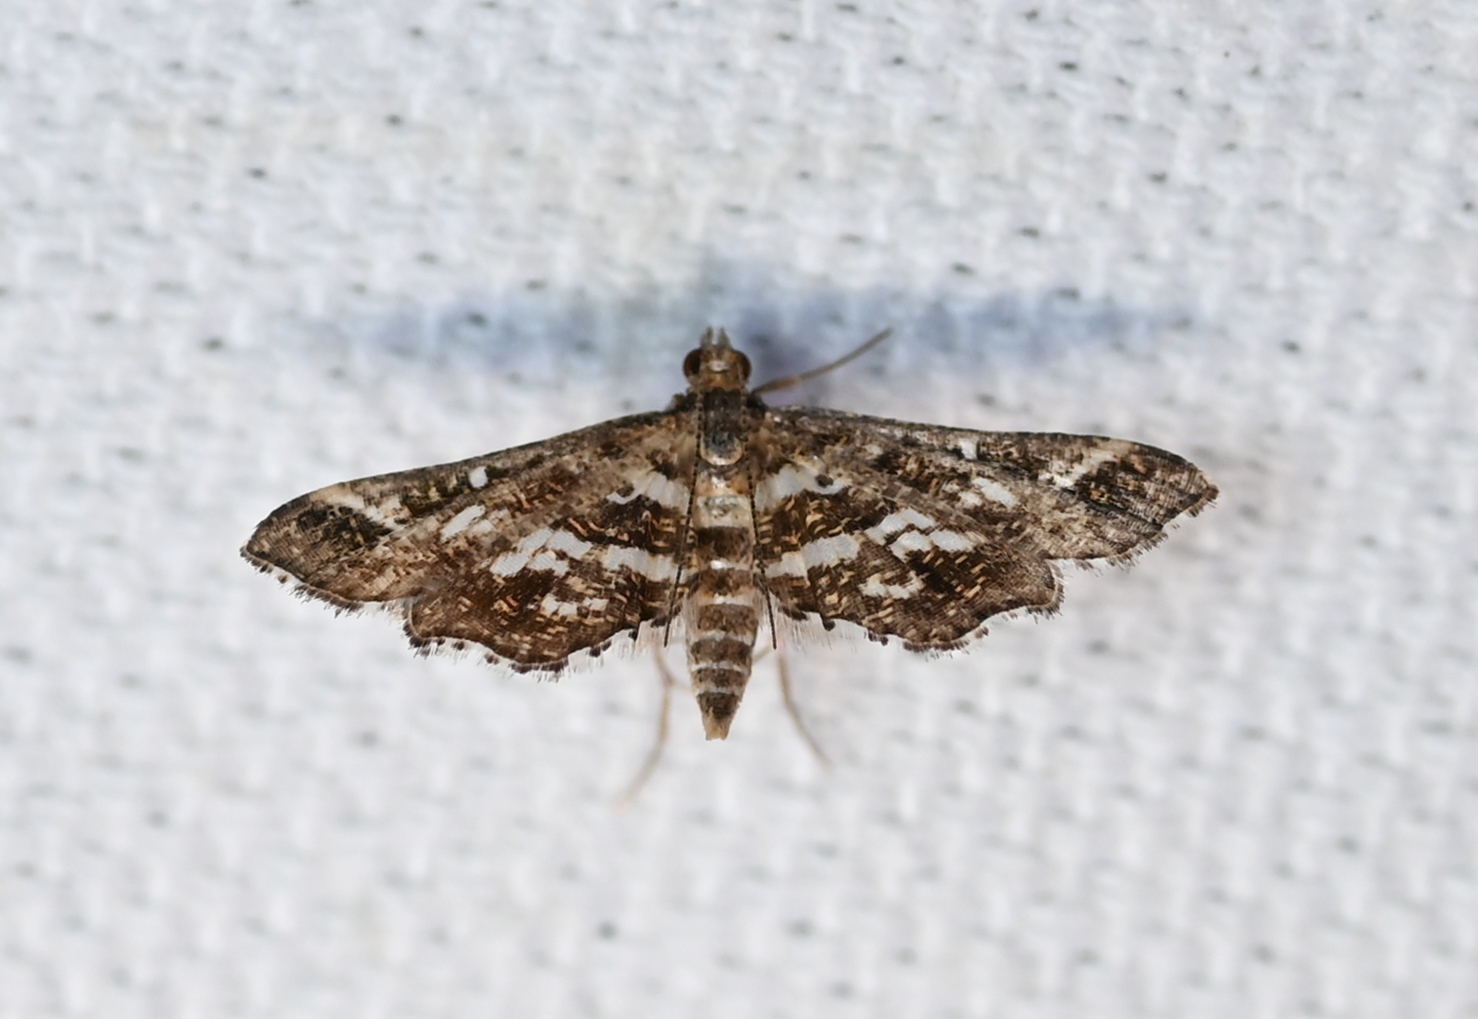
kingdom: Animalia
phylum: Arthropoda
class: Insecta
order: Lepidoptera
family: Crambidae
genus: Diasemiopsis
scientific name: Diasemiopsis ramburialis
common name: Vagrant china-mark
